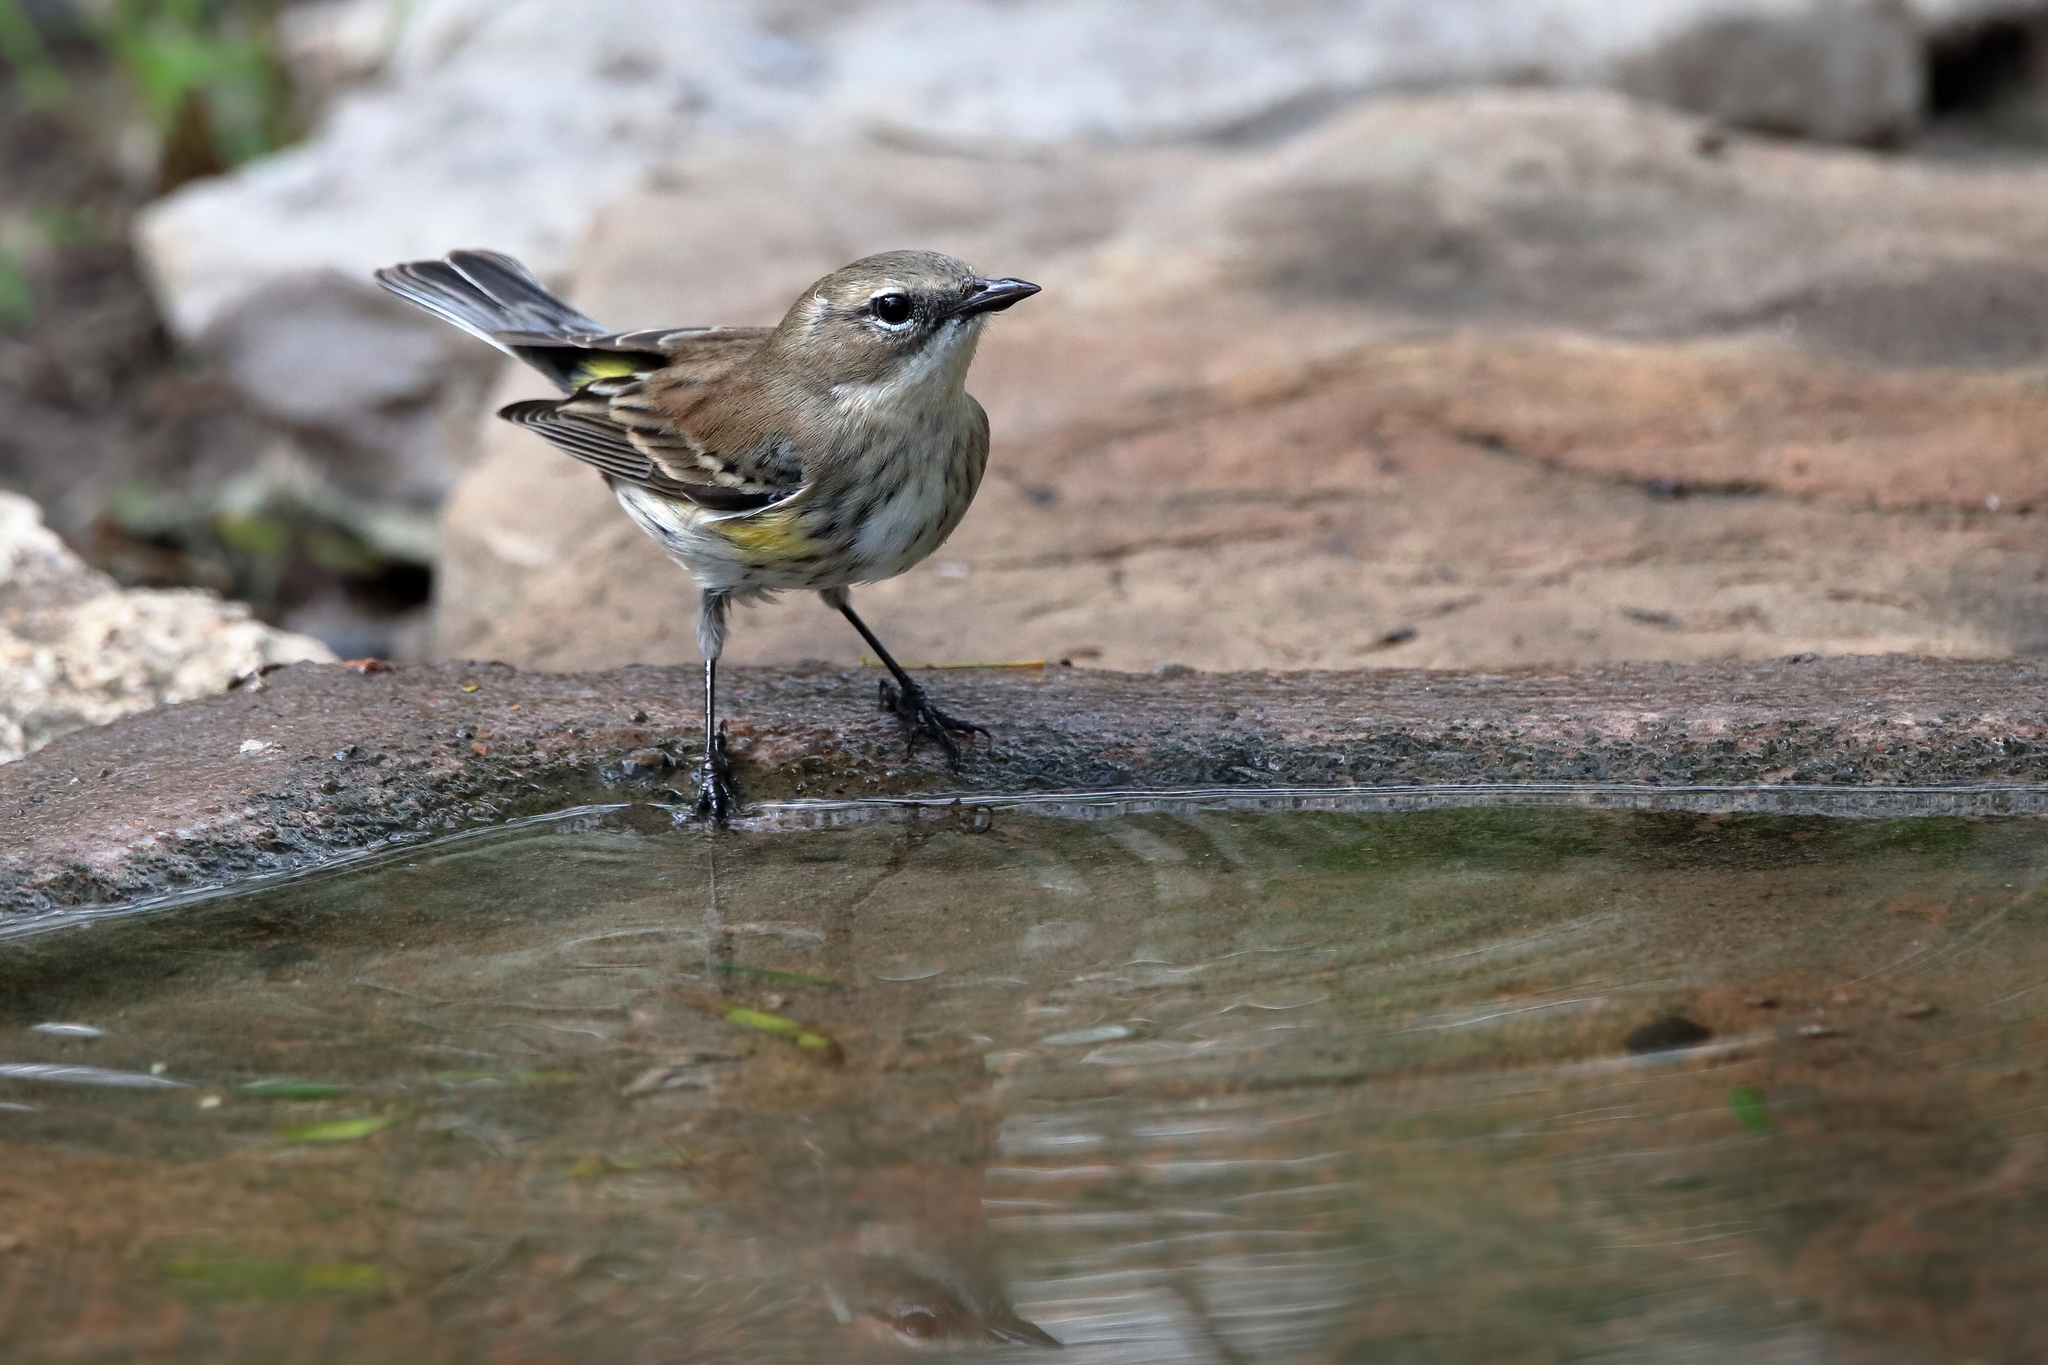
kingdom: Animalia
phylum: Chordata
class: Aves
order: Passeriformes
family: Parulidae
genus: Setophaga
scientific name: Setophaga coronata
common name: Myrtle warbler
